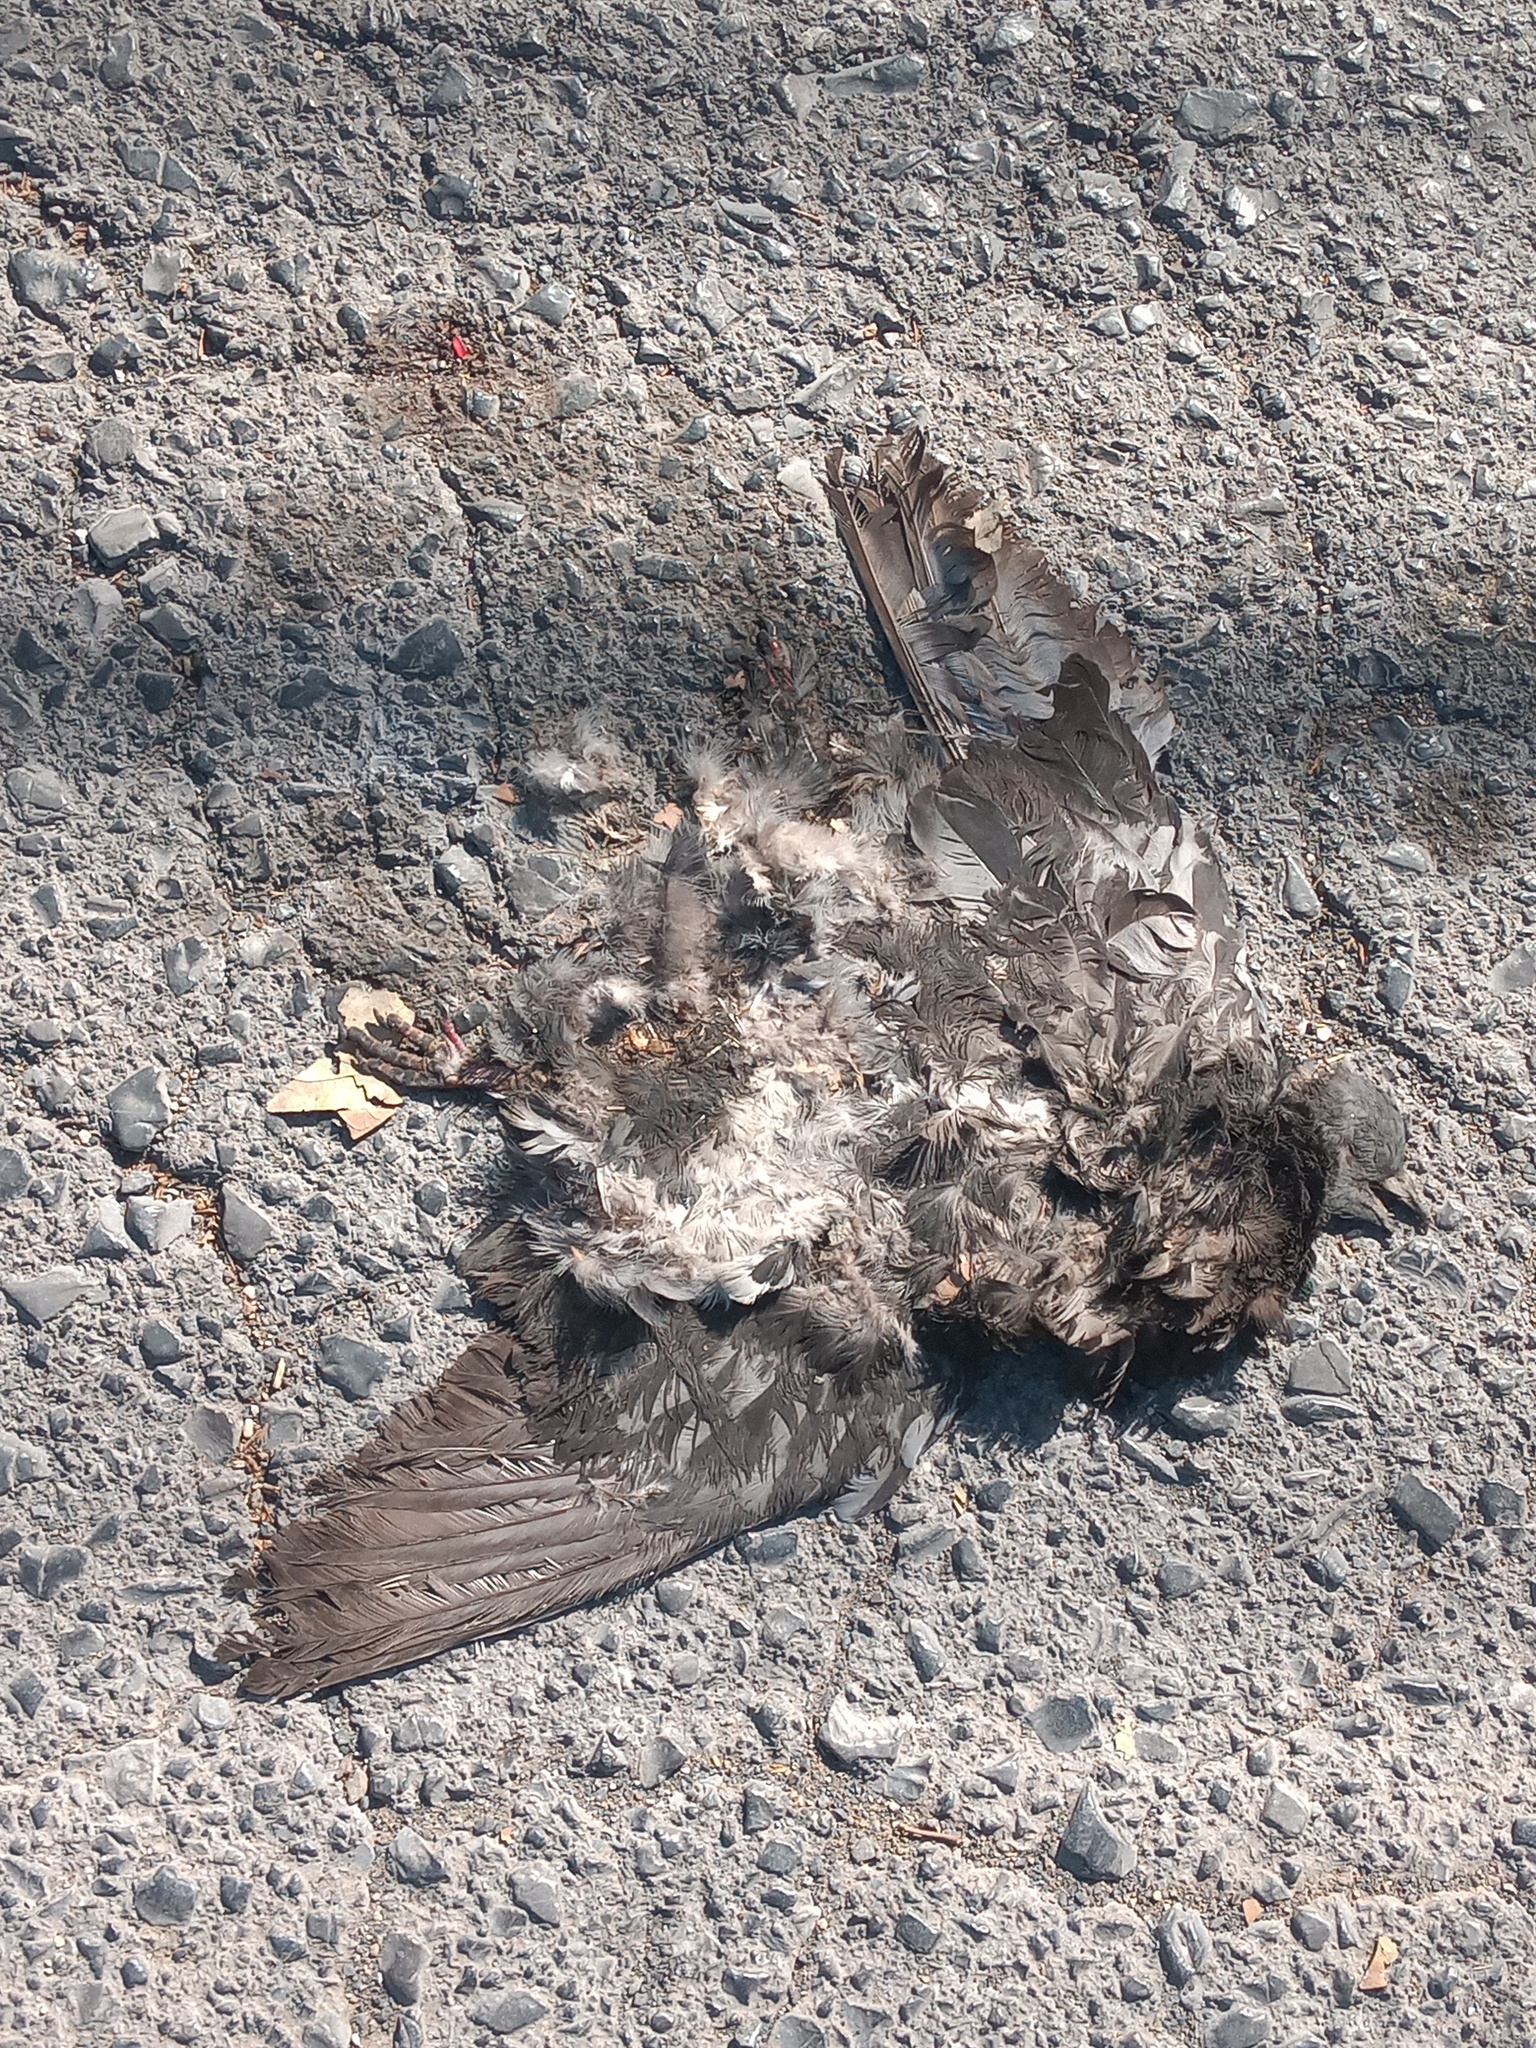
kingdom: Animalia
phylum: Chordata
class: Aves
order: Columbiformes
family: Columbidae
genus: Columba
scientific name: Columba livia
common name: Rock pigeon
